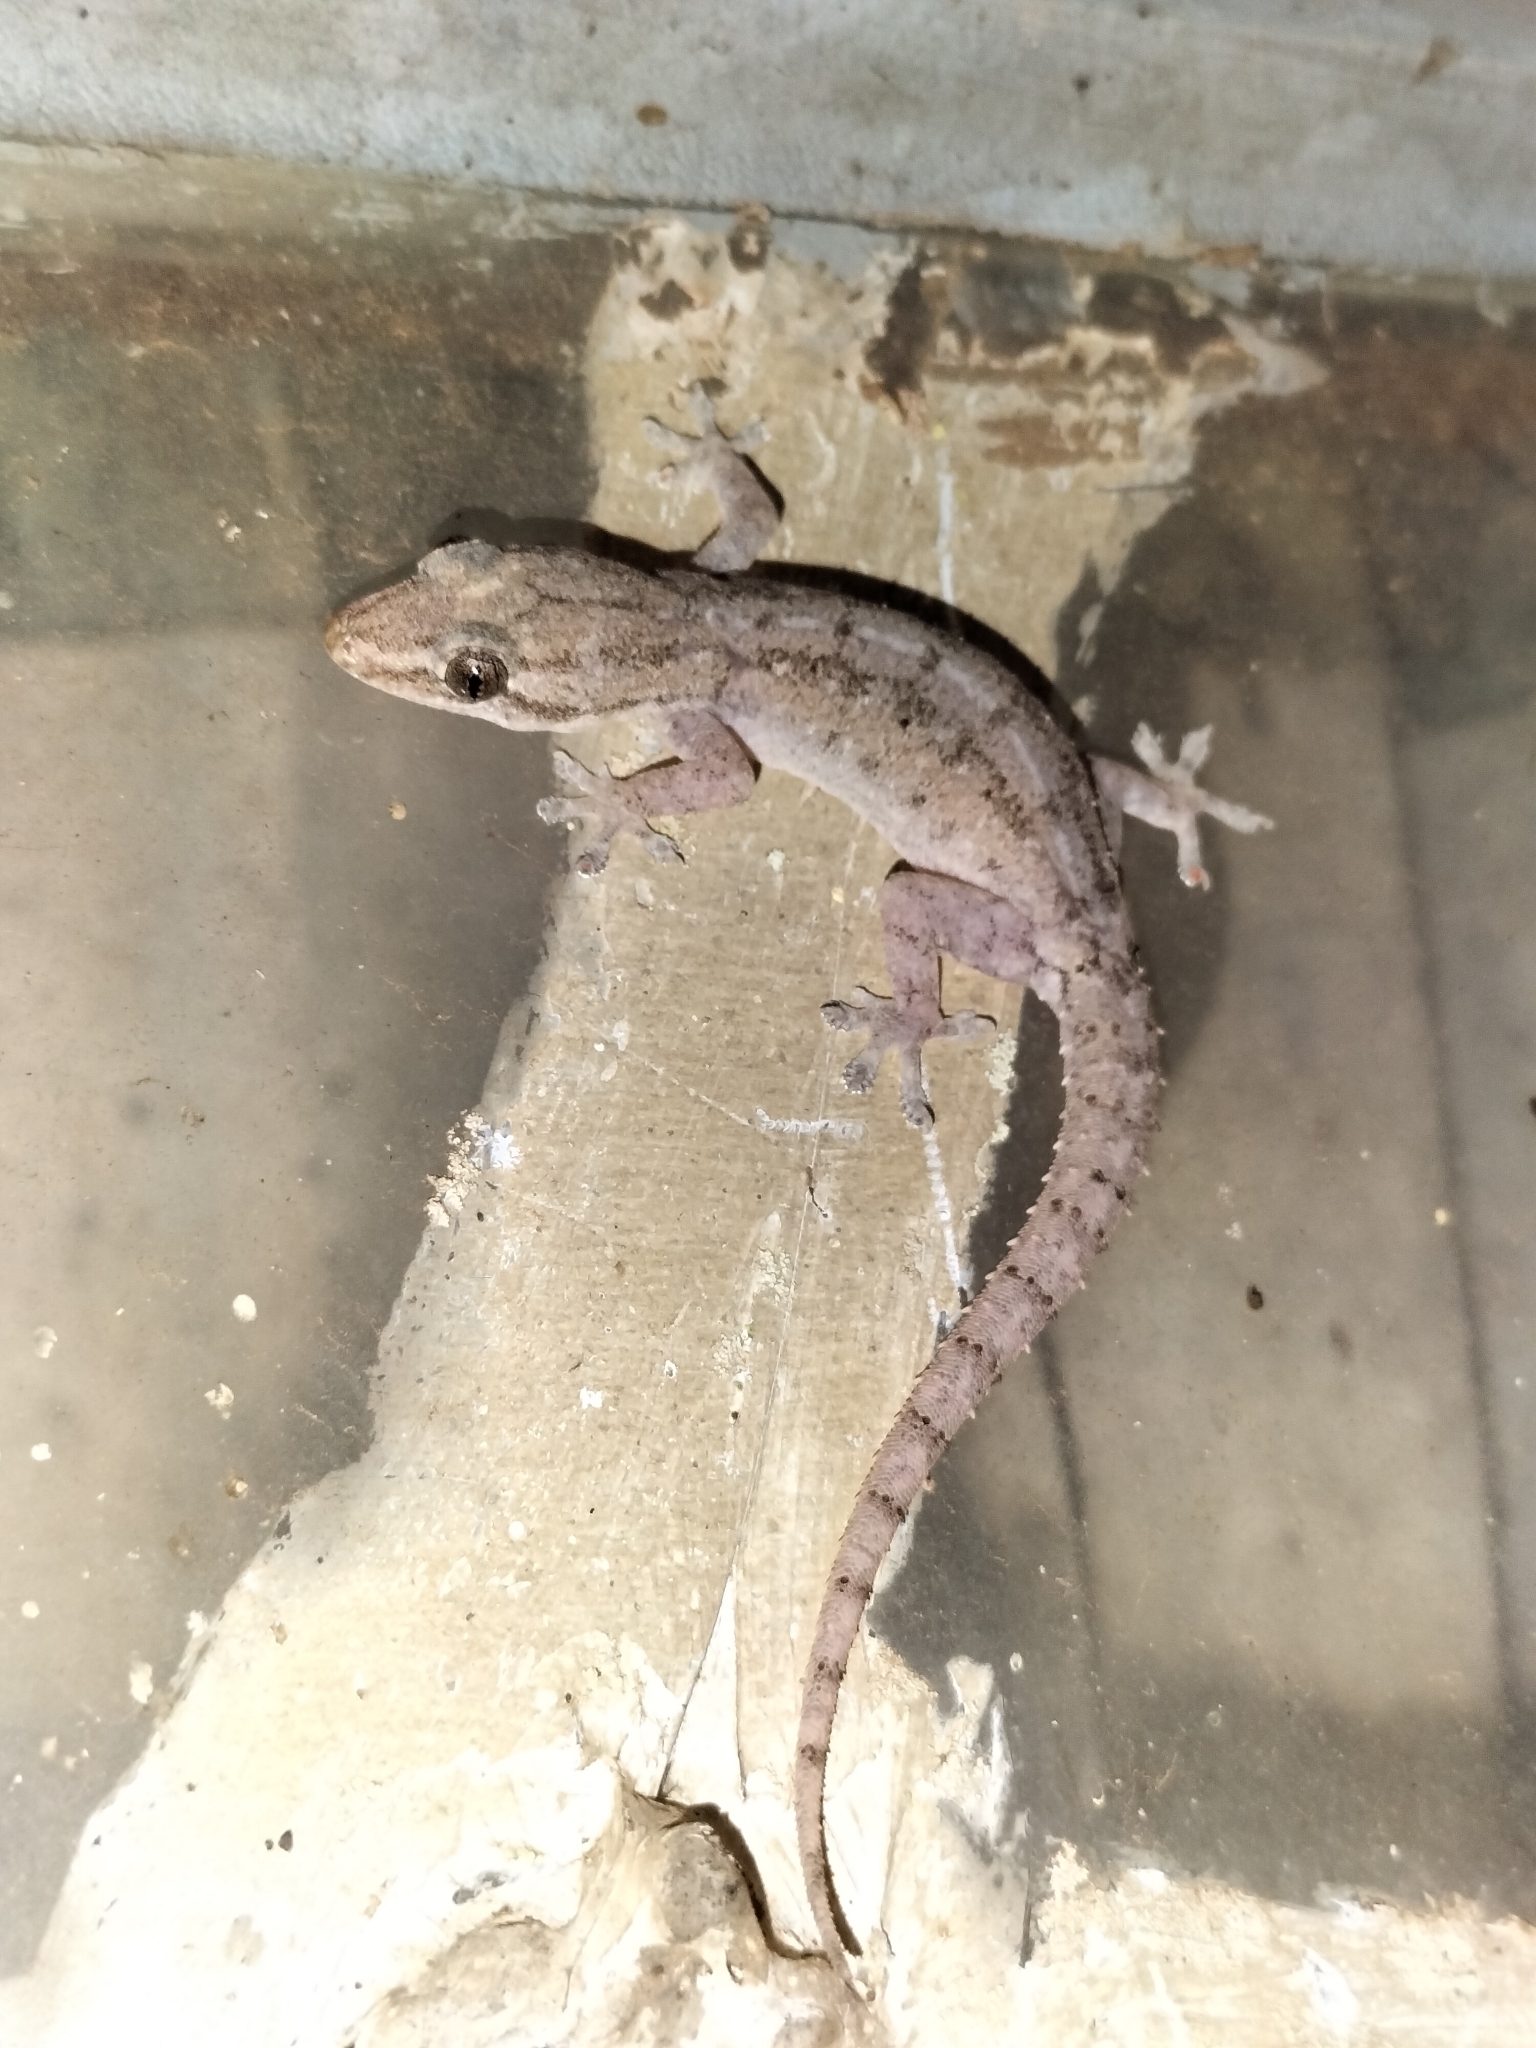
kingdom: Animalia
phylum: Chordata
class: Squamata
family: Gekkonidae
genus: Hemidactylus
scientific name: Hemidactylus frenatus
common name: Common house gecko
